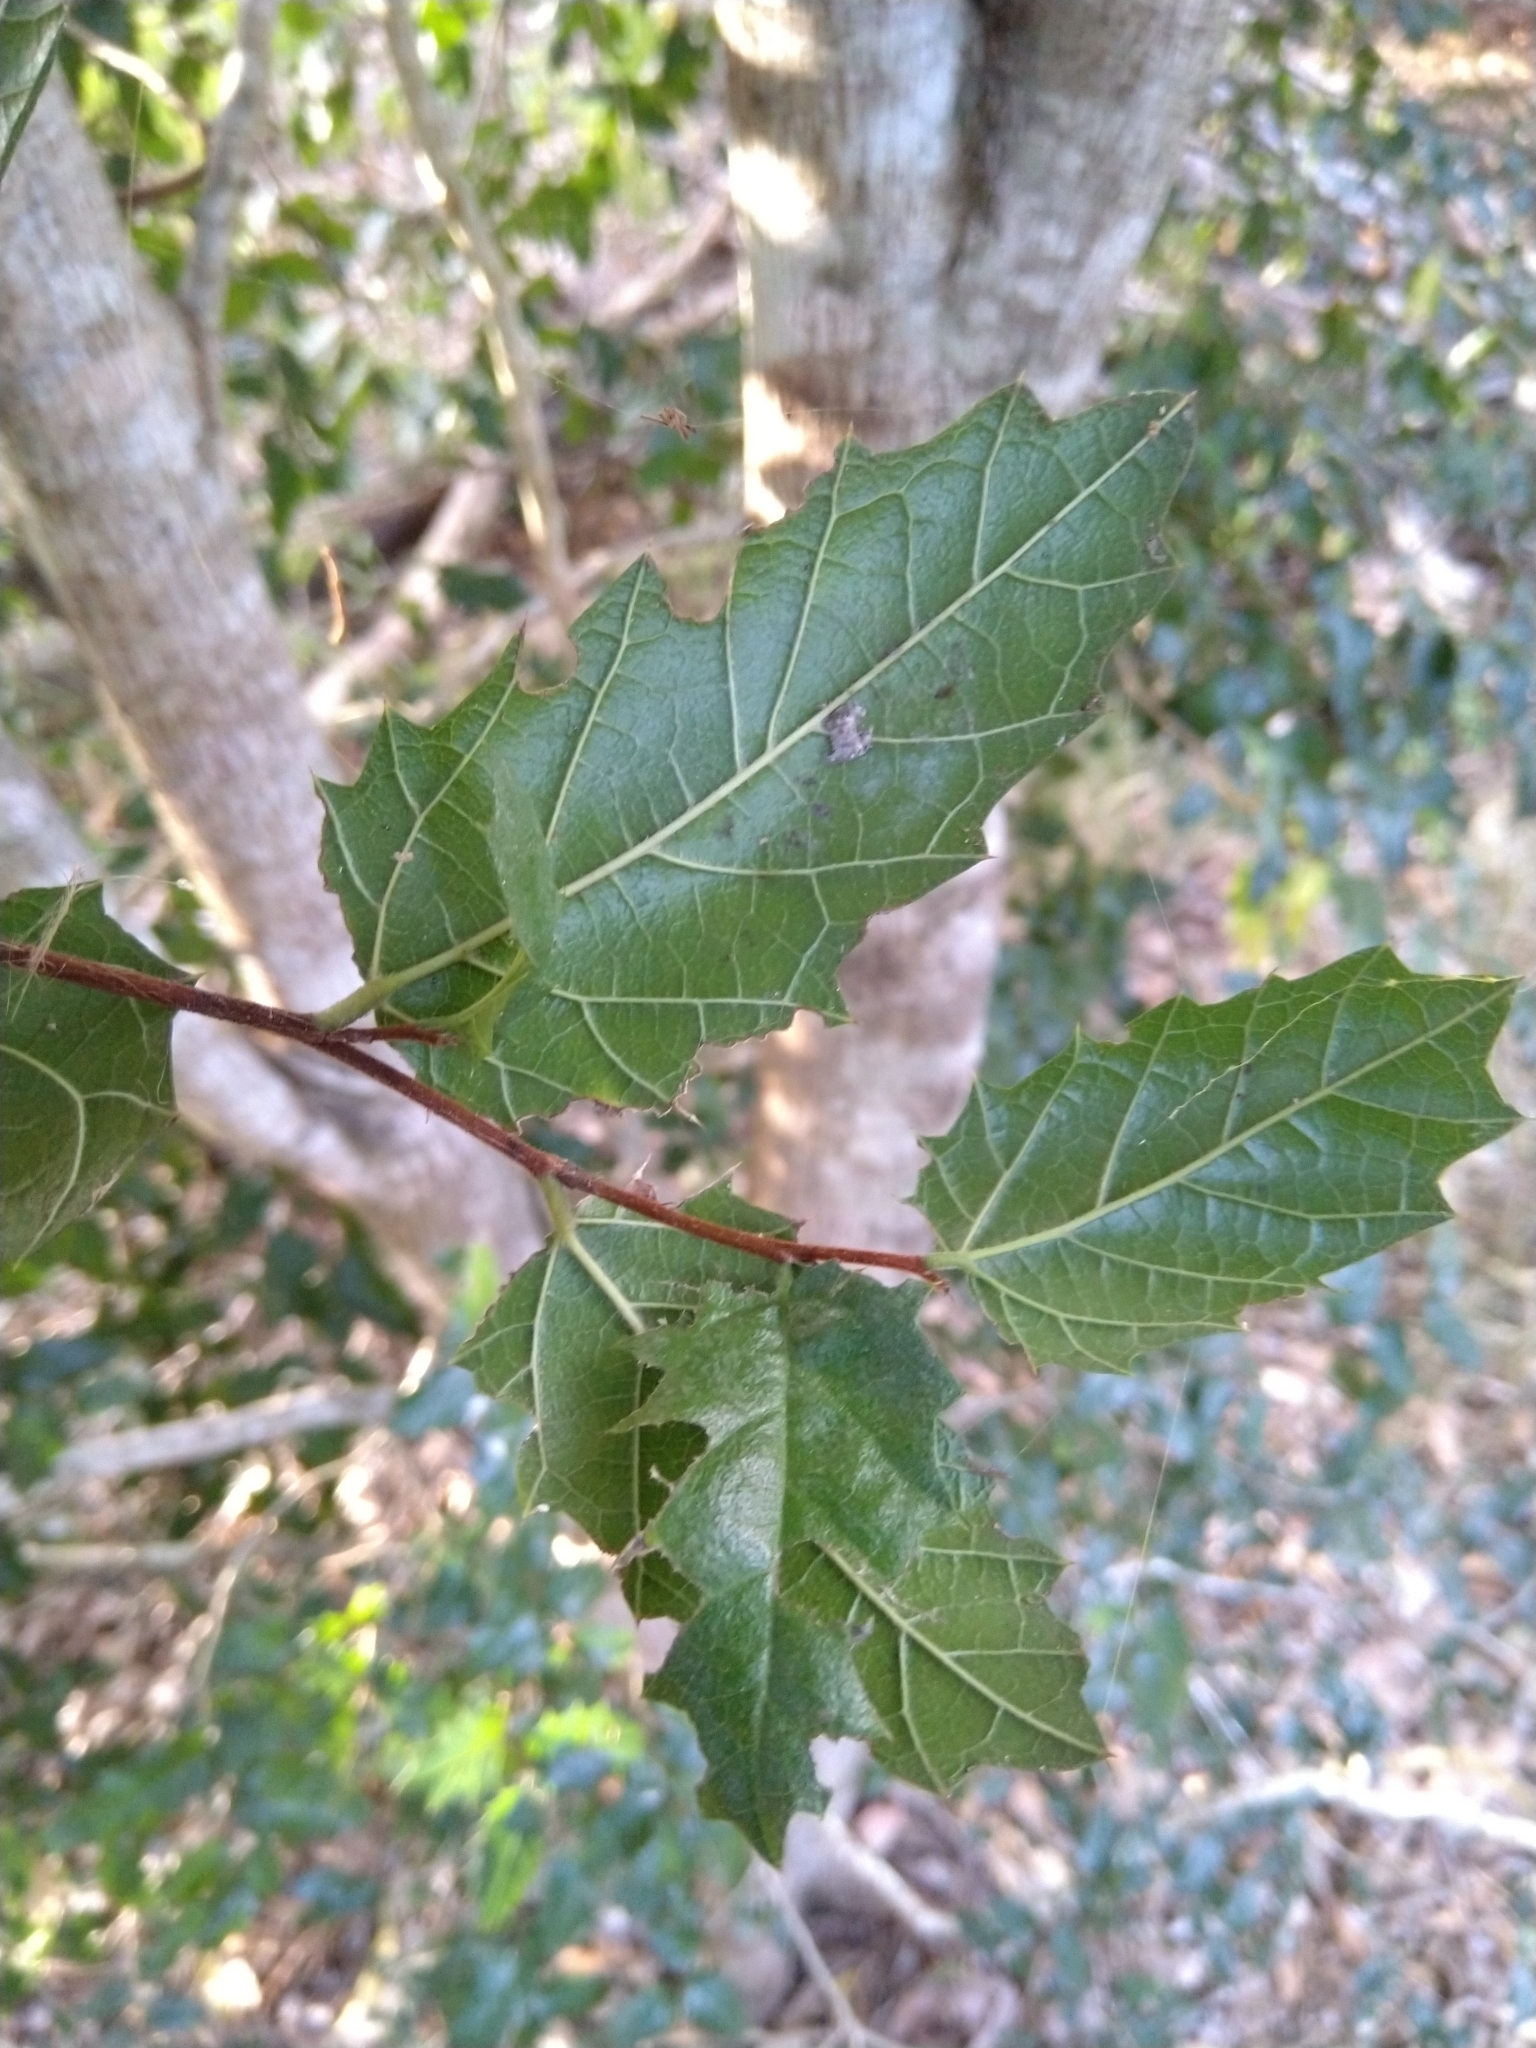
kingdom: Plantae
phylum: Tracheophyta
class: Magnoliopsida
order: Rosales
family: Cannabaceae
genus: Aphananthe
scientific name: Aphananthe philippinensis
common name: Wild holly
